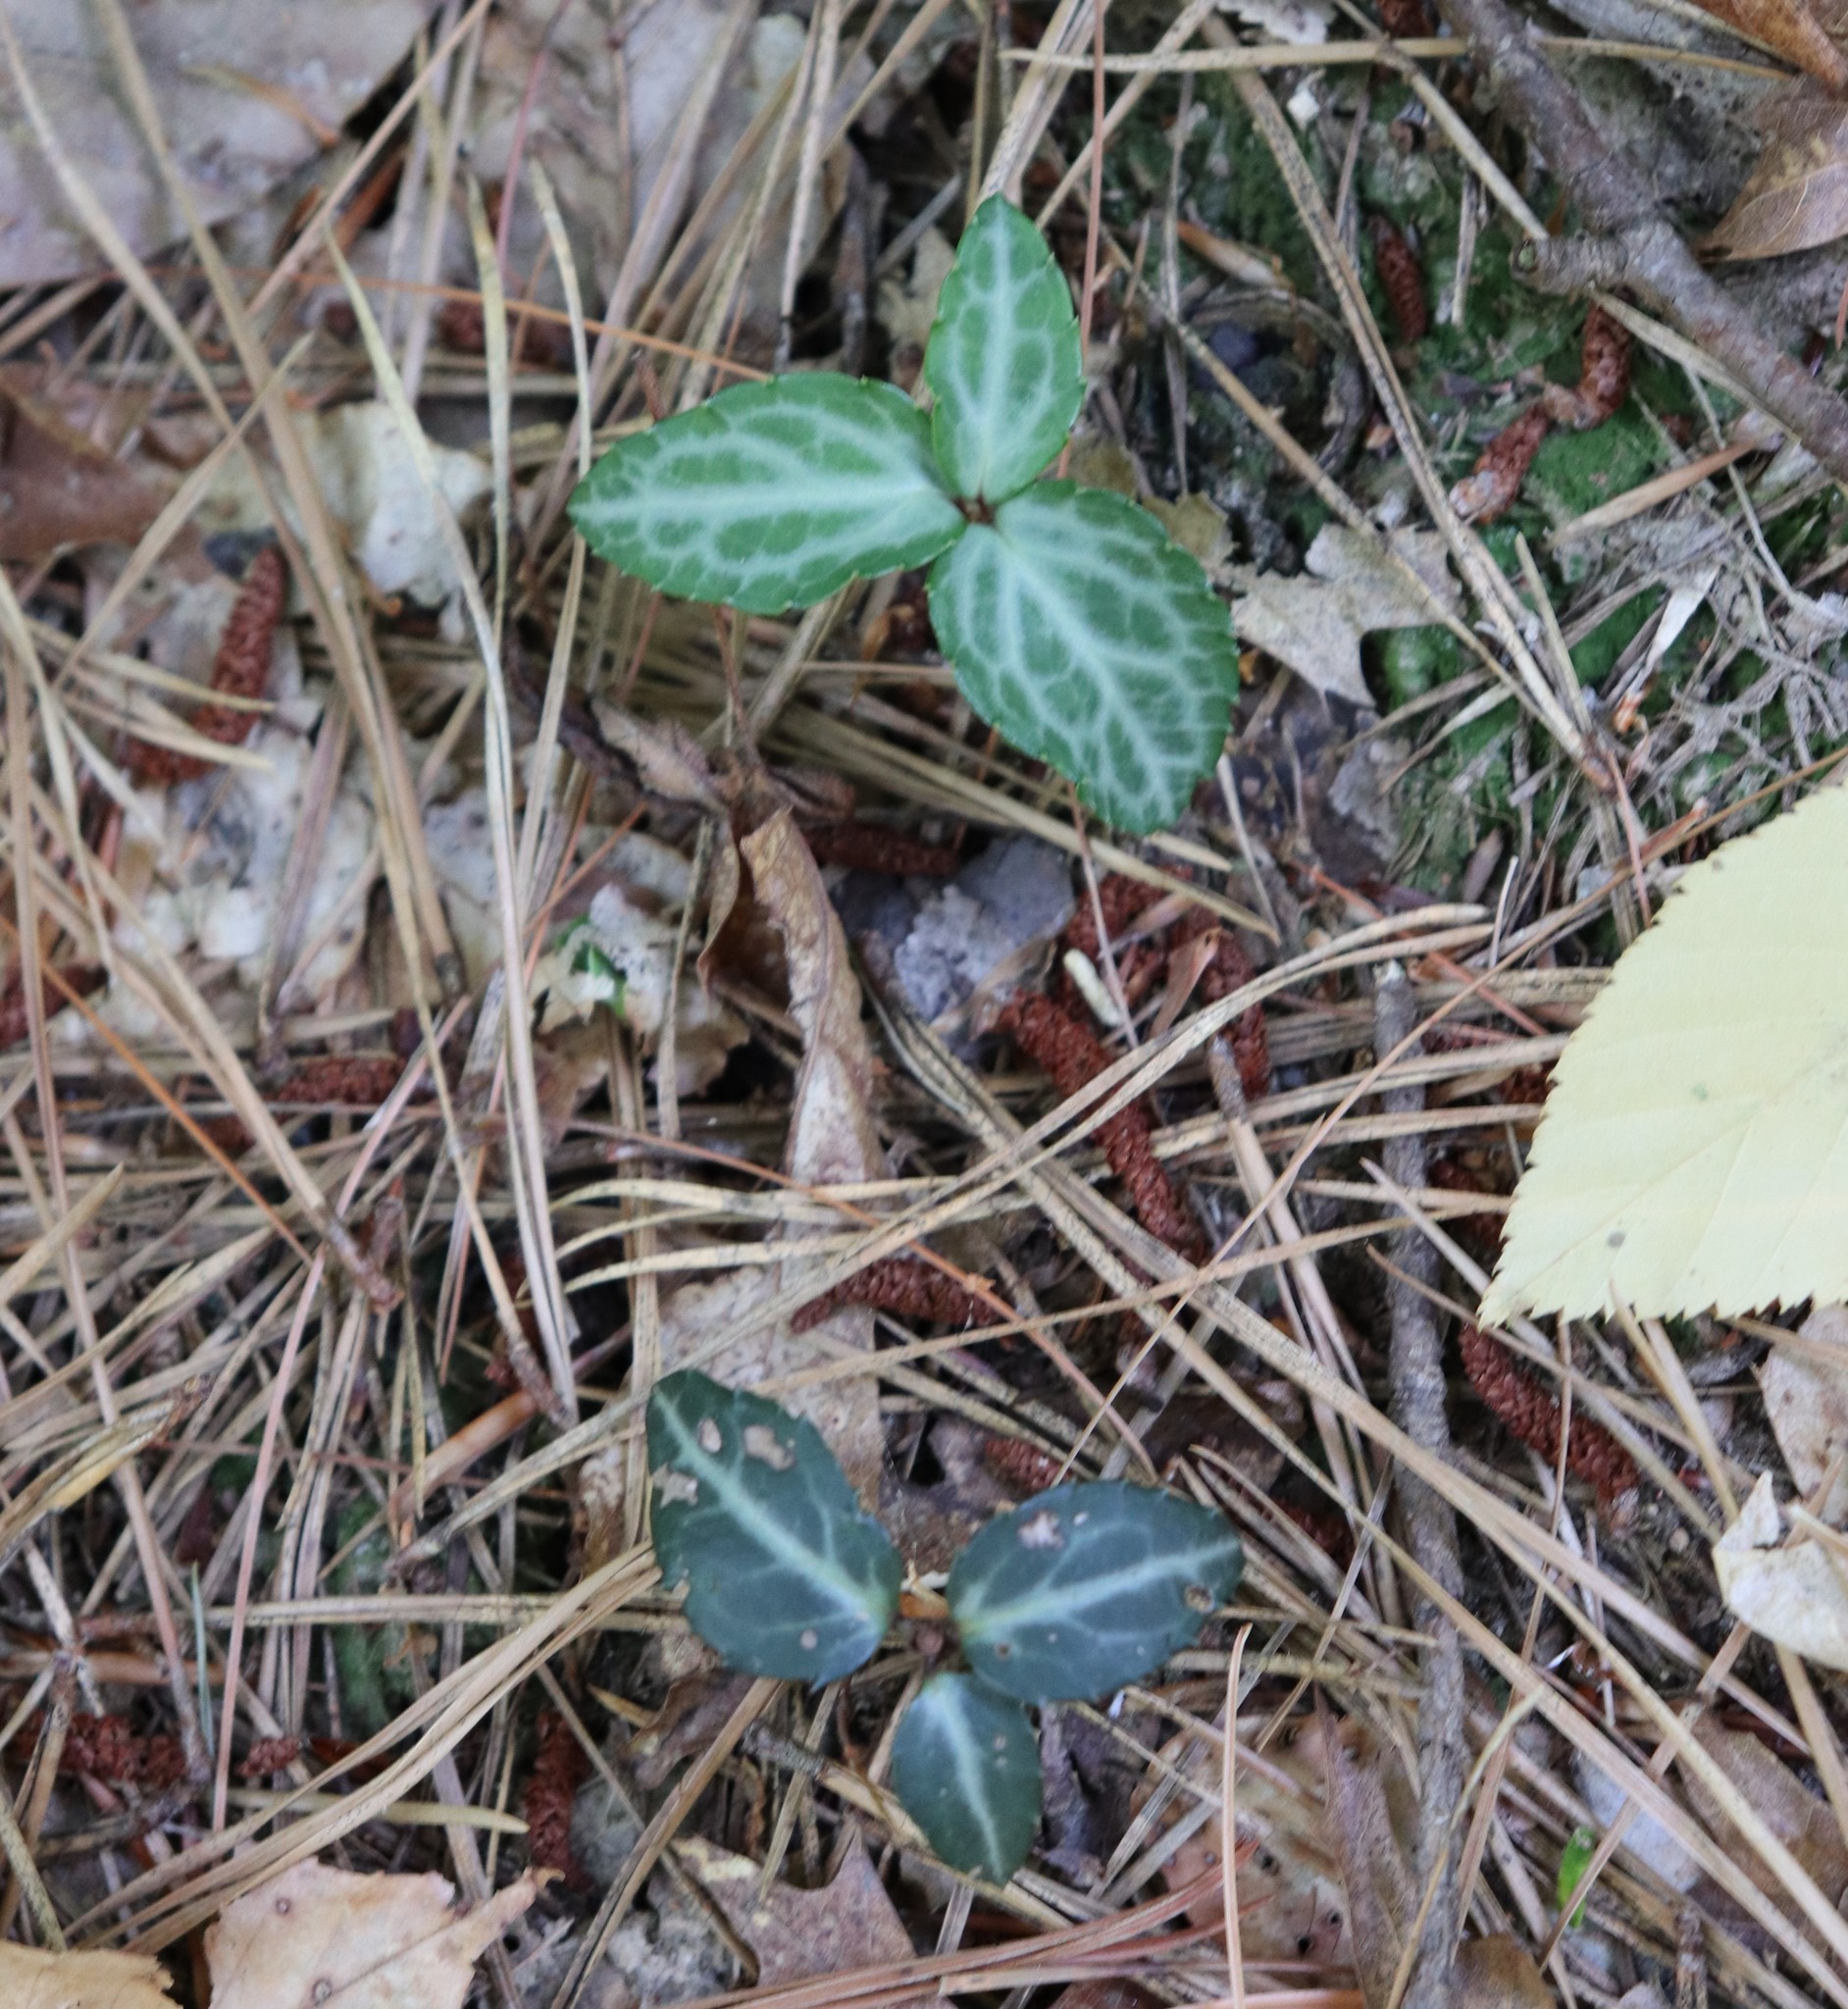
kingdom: Plantae
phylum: Tracheophyta
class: Magnoliopsida
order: Ericales
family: Ericaceae
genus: Chimaphila
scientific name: Chimaphila maculata
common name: Spotted pipsissewa
